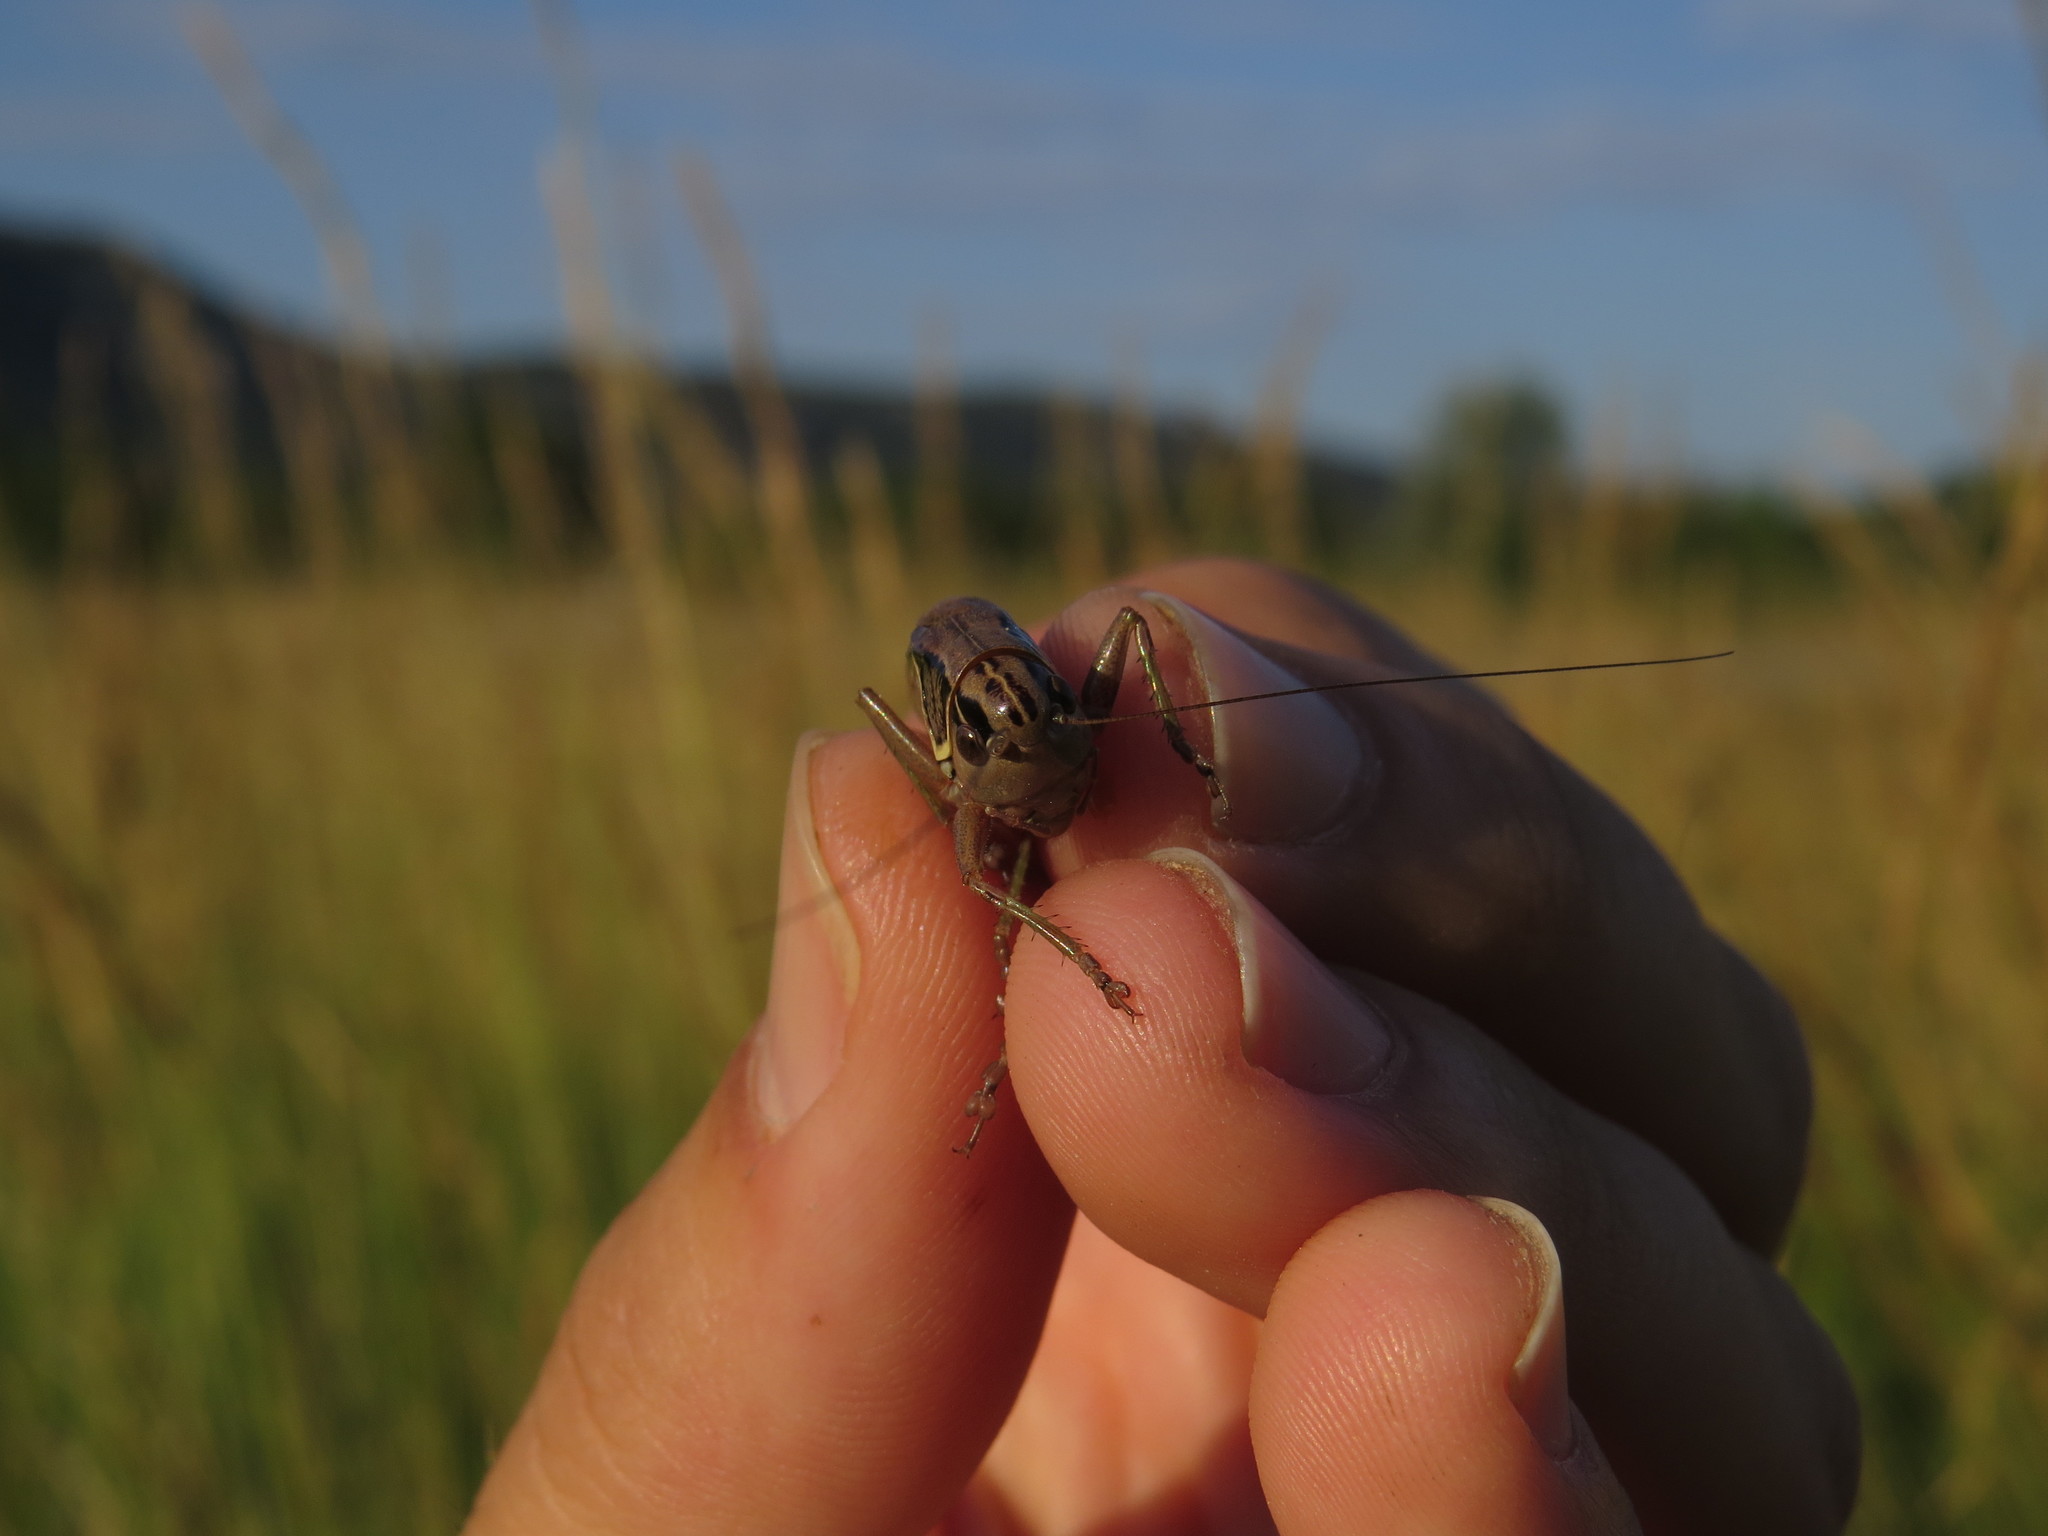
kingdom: Animalia
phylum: Arthropoda
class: Insecta
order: Orthoptera
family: Tettigoniidae
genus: Roeseliana
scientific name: Roeseliana azami
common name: French meadow bush-cricket
